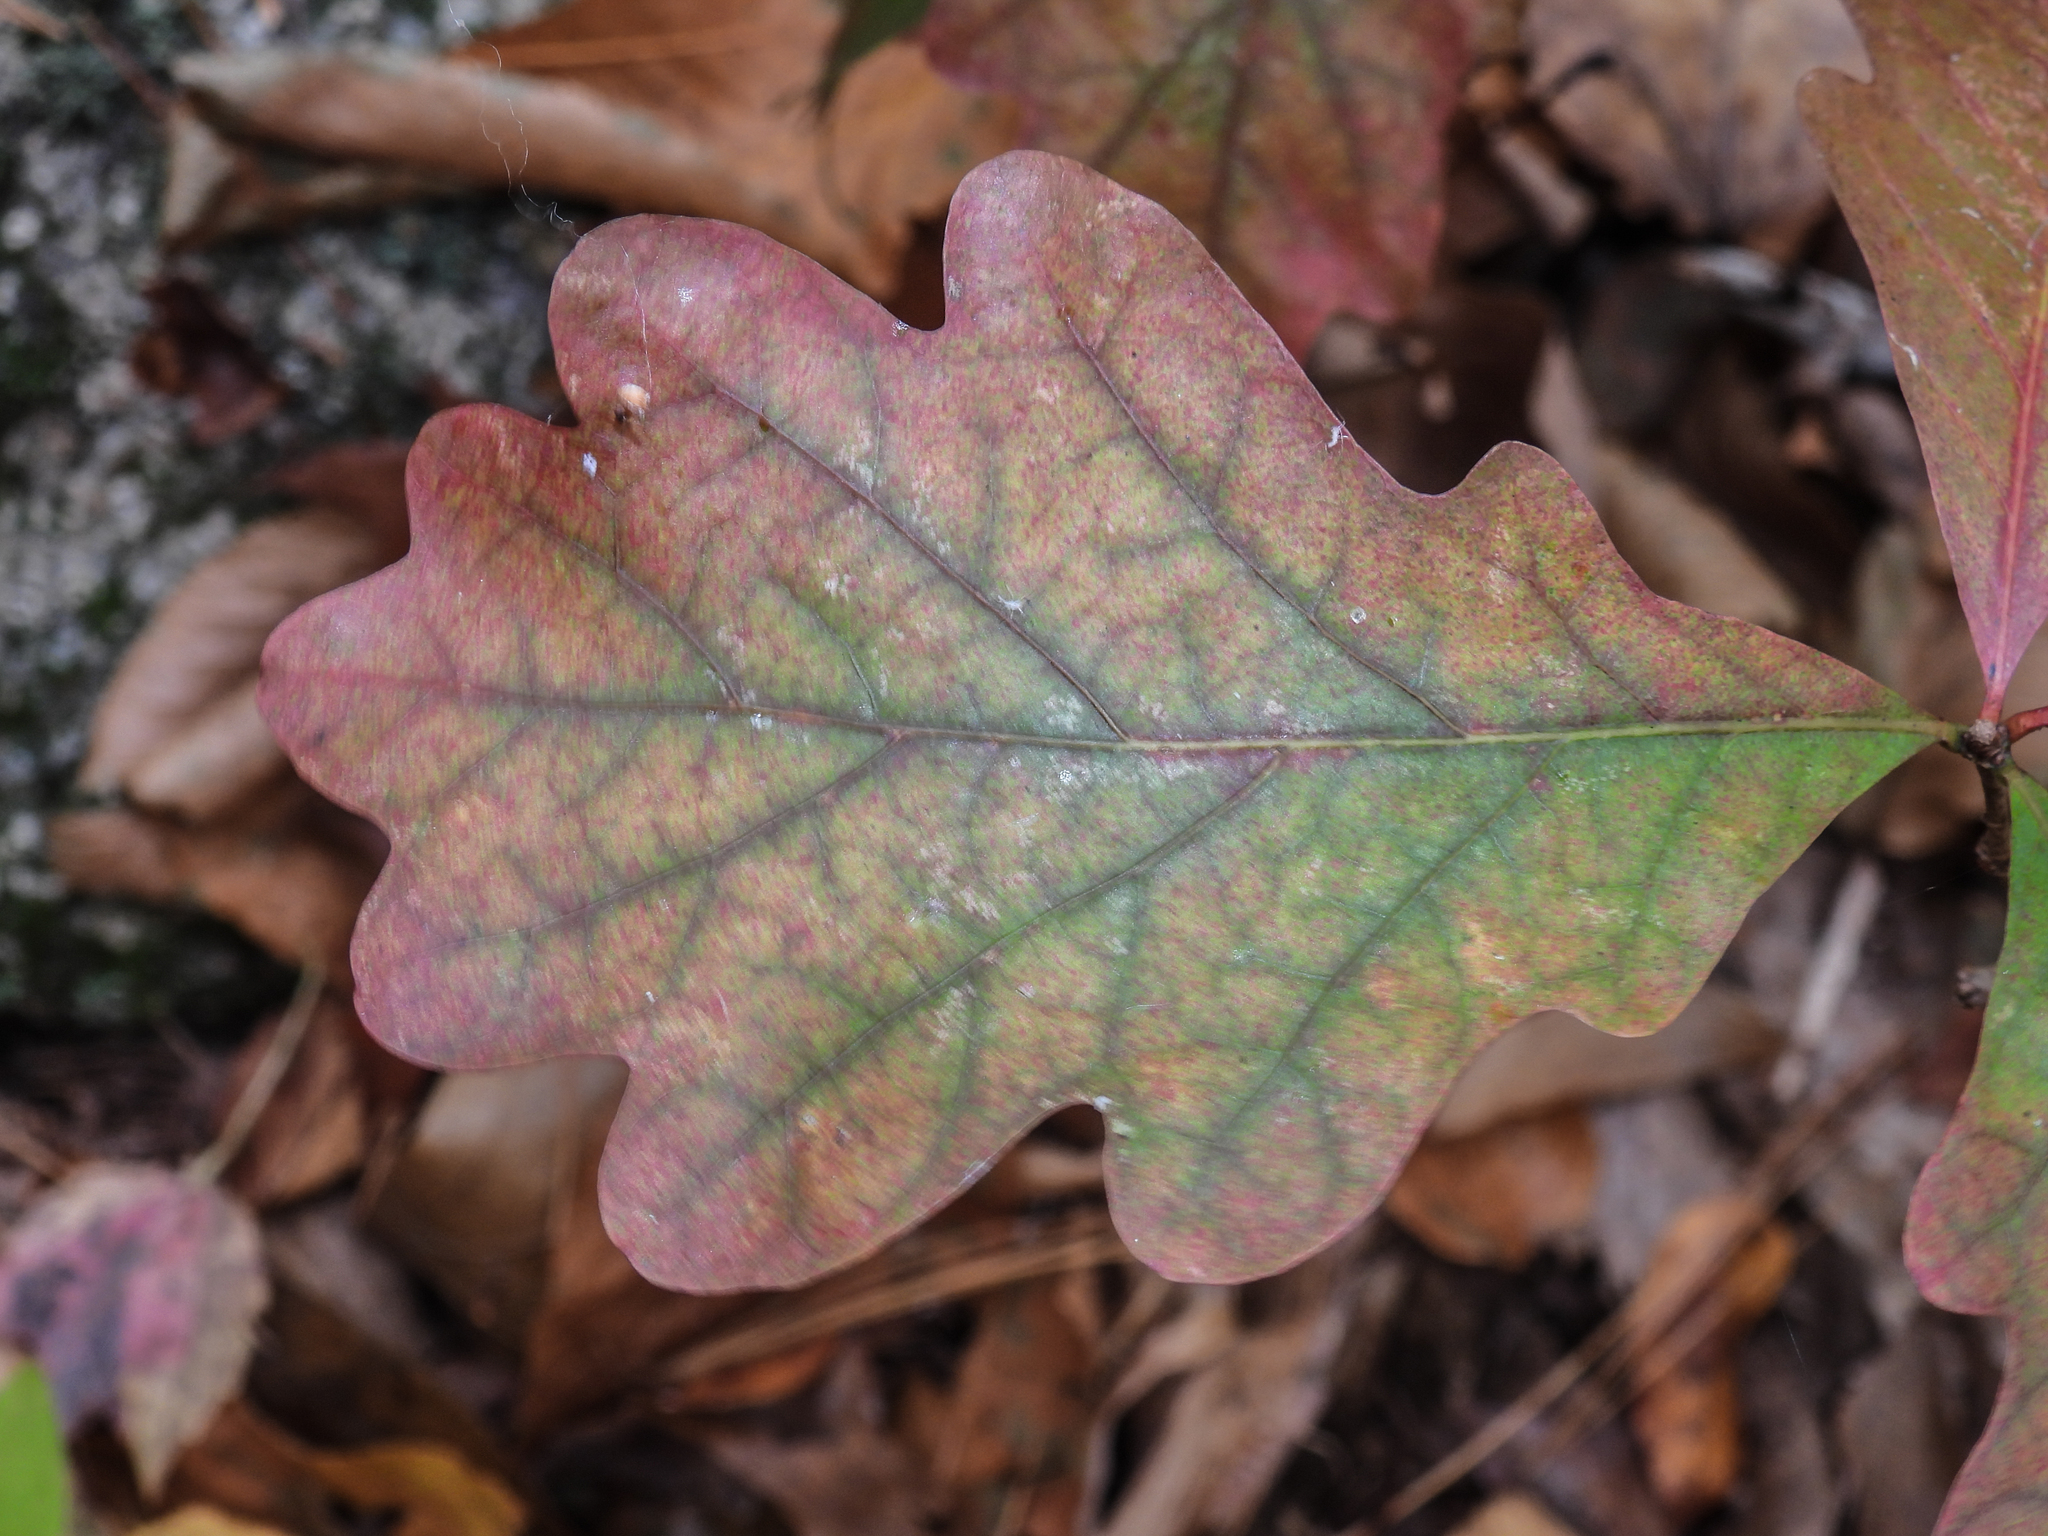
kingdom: Plantae
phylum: Tracheophyta
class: Magnoliopsida
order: Fagales
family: Fagaceae
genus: Quercus
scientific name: Quercus alba
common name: White oak
